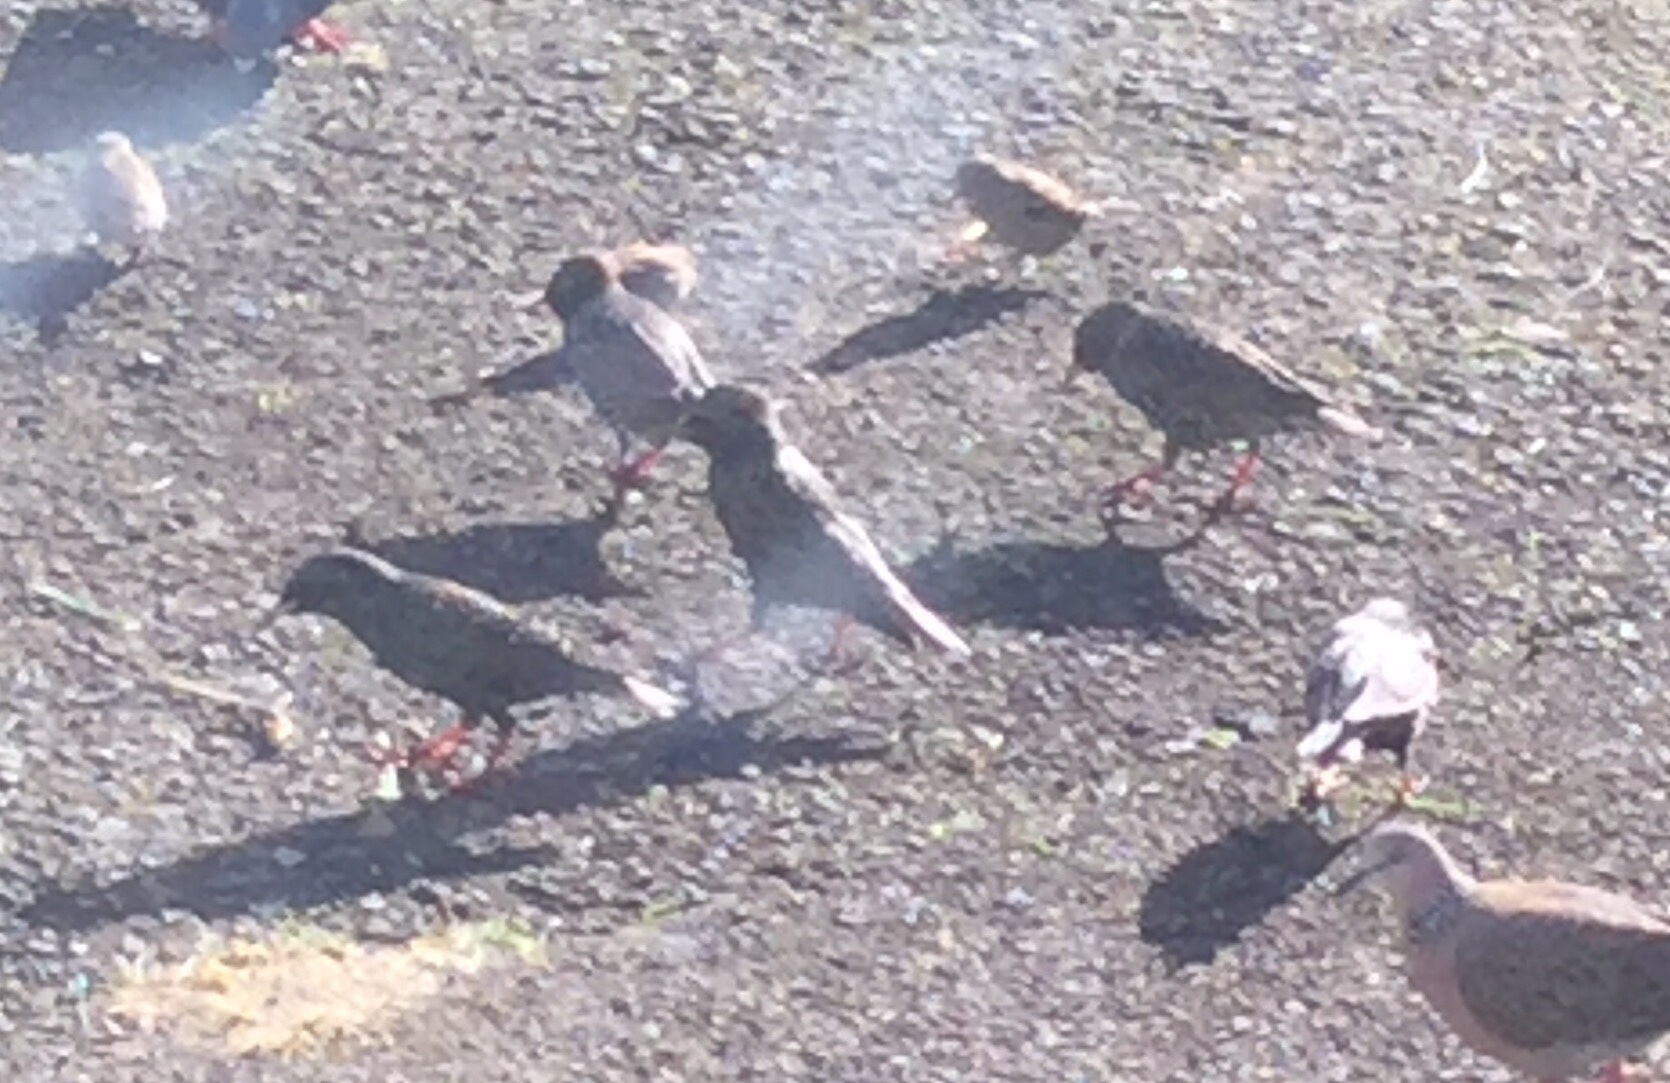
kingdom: Animalia
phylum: Chordata
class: Aves
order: Passeriformes
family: Sturnidae
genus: Sturnus
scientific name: Sturnus vulgaris
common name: Common starling
